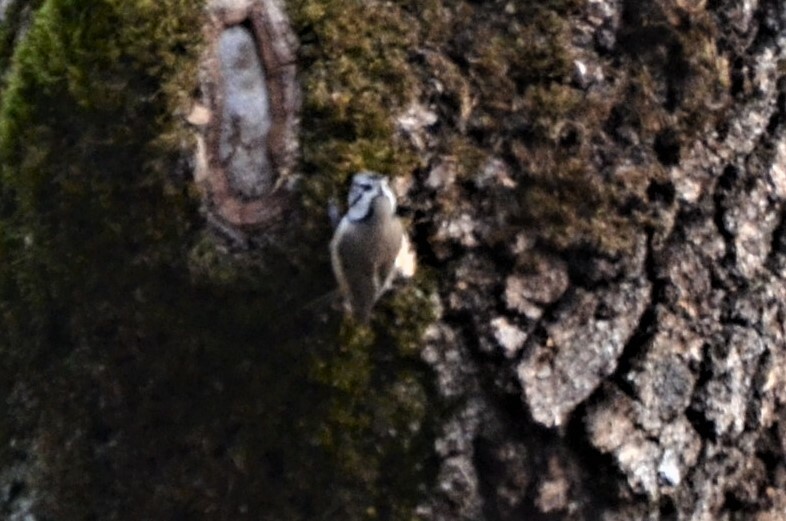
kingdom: Animalia
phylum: Chordata
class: Aves
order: Passeriformes
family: Paridae
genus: Lophophanes
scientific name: Lophophanes cristatus
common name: European crested tit
